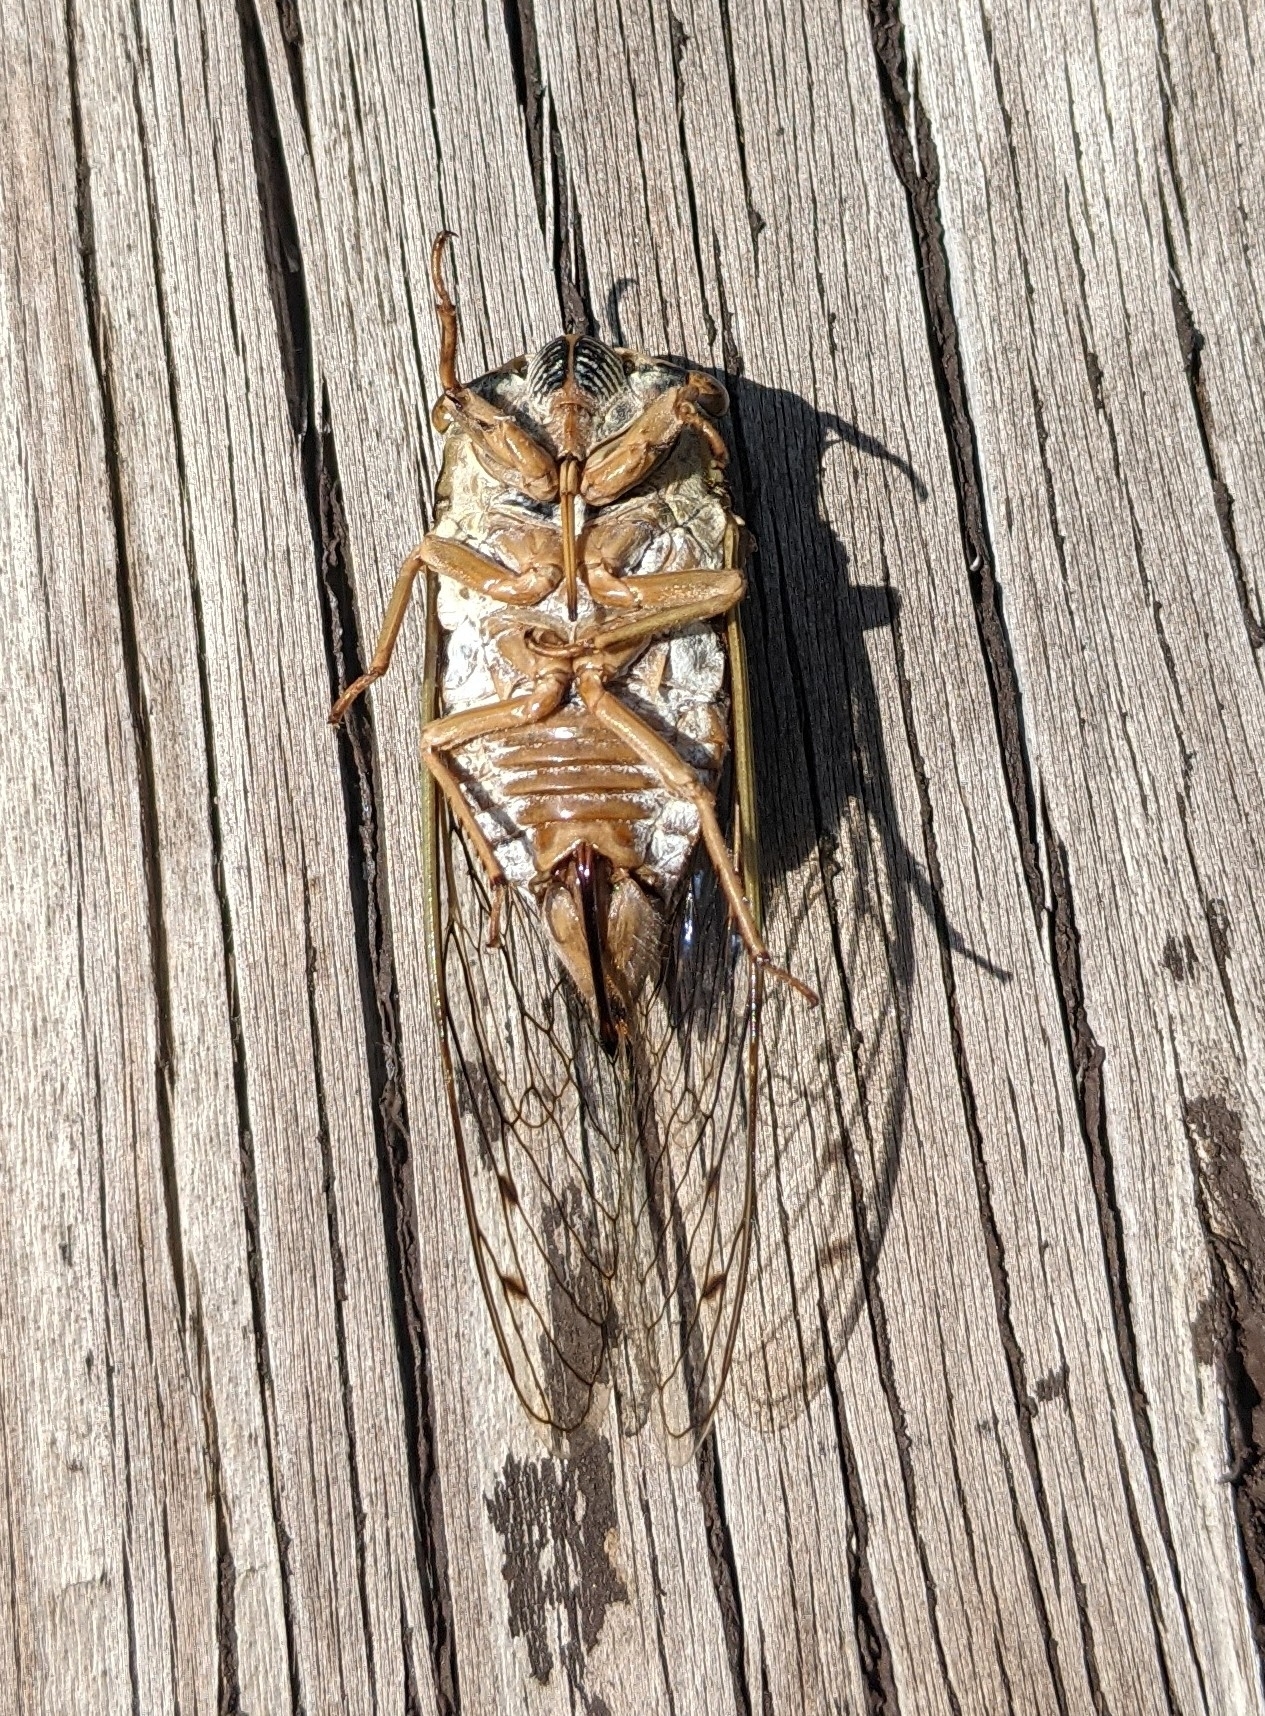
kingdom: Animalia
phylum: Arthropoda
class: Insecta
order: Hemiptera
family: Cicadidae
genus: Megatibicen
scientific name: Megatibicen resh
